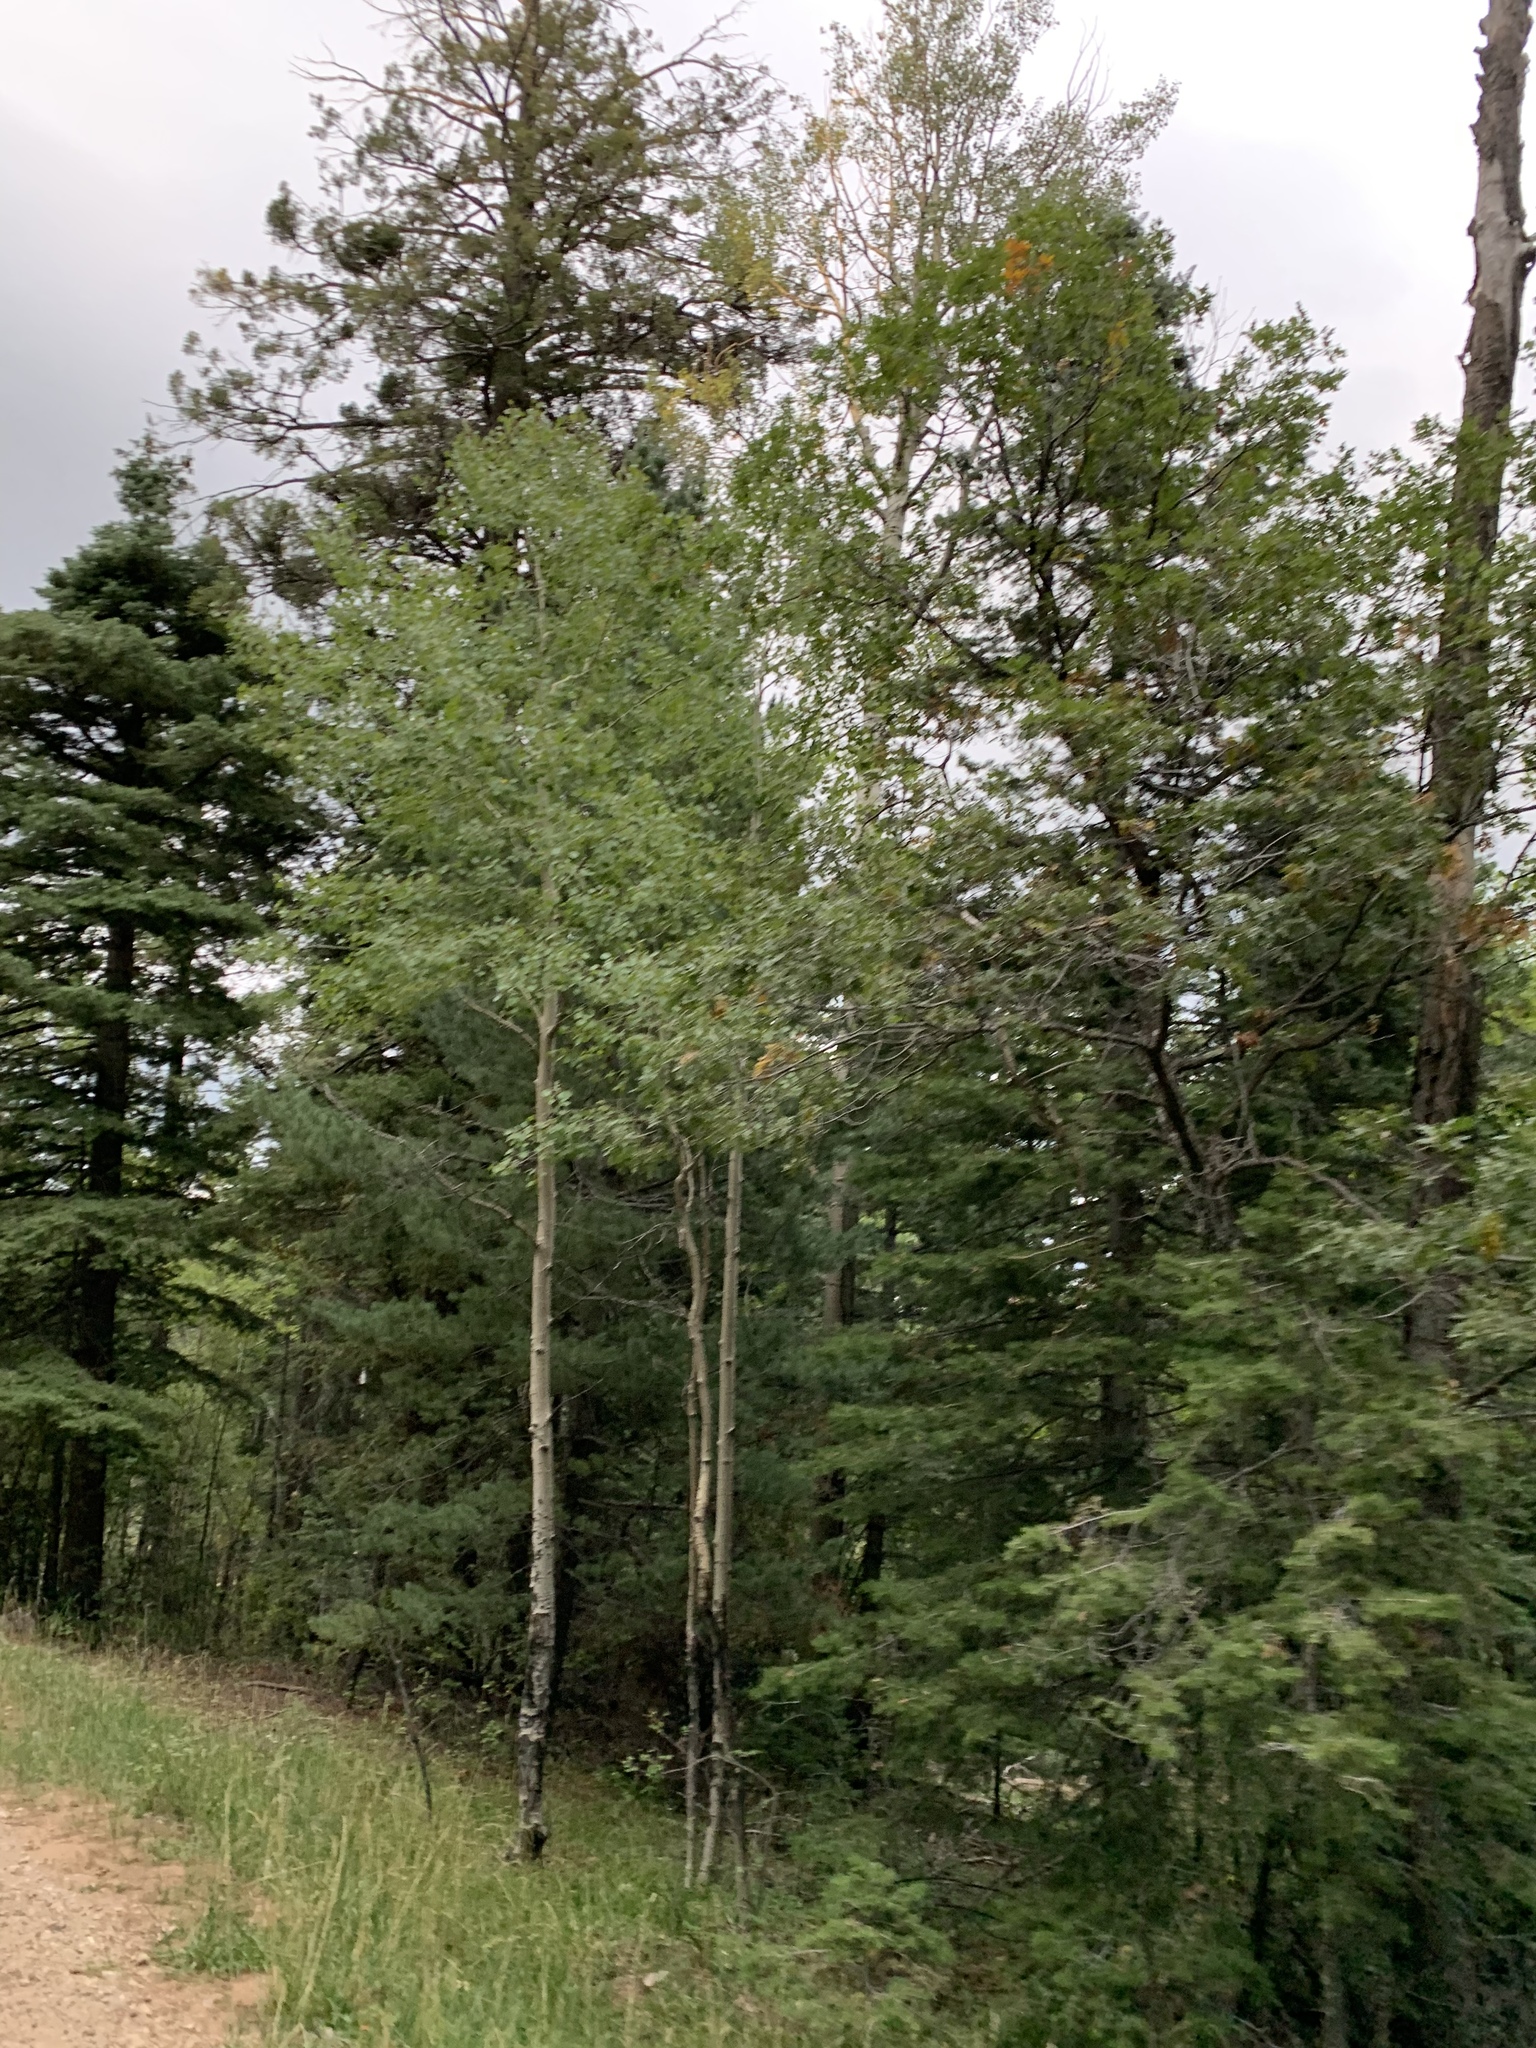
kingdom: Plantae
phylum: Tracheophyta
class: Magnoliopsida
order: Malpighiales
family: Salicaceae
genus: Populus
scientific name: Populus tremuloides
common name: Quaking aspen
